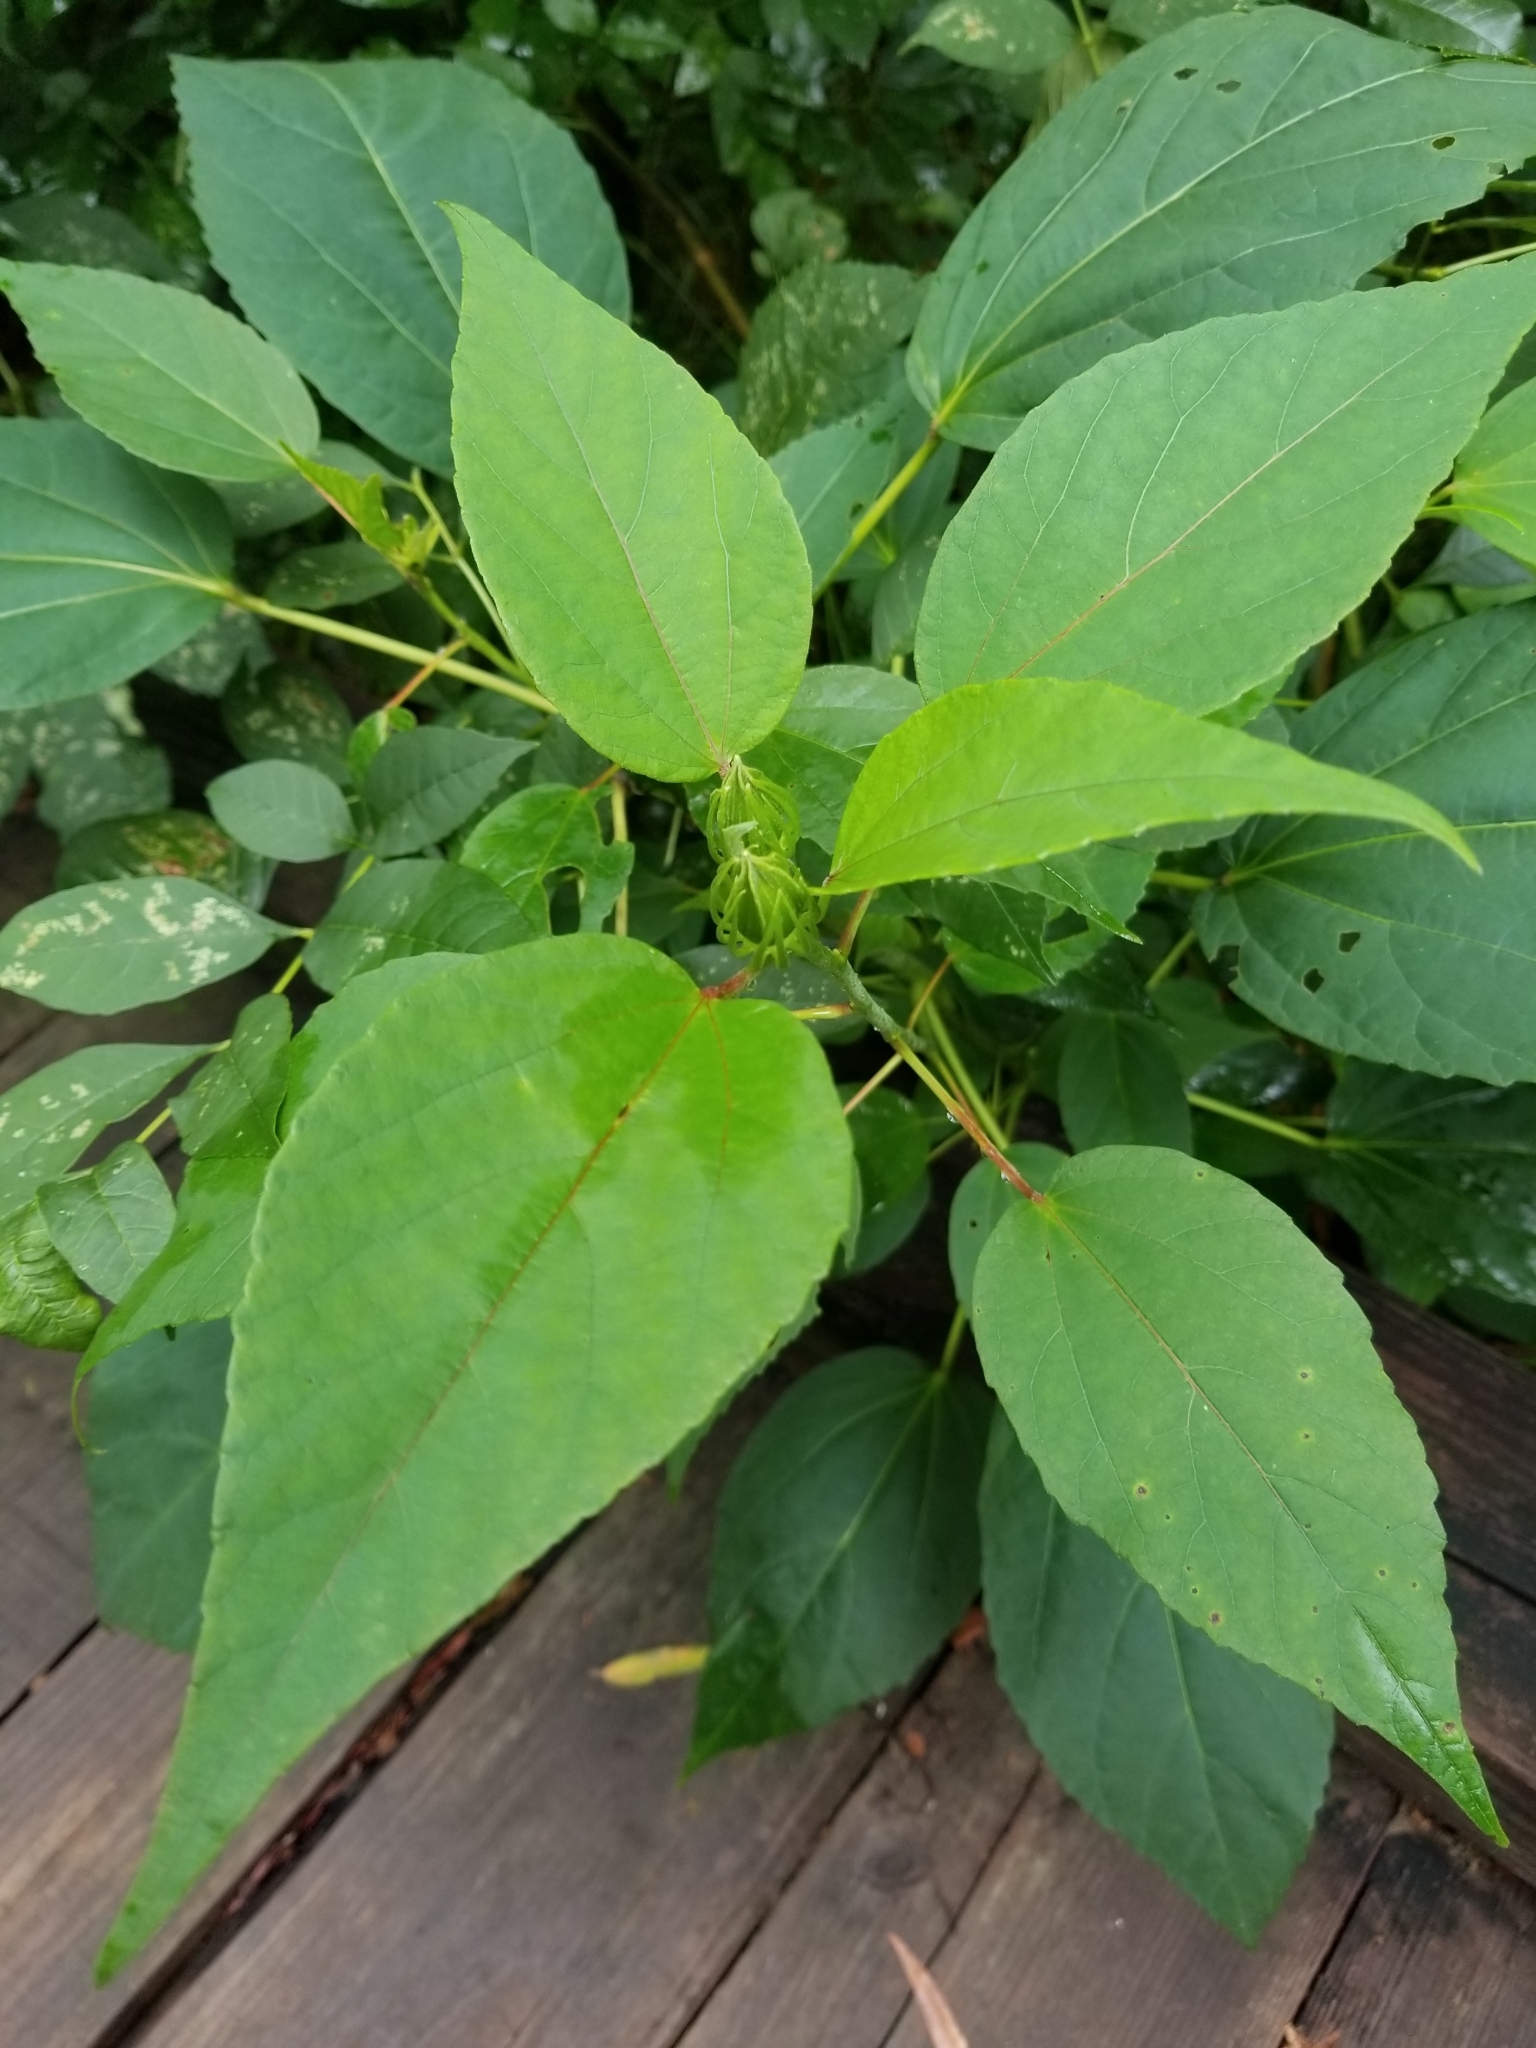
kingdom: Plantae
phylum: Tracheophyta
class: Magnoliopsida
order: Malvales
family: Malvaceae
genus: Hibiscus
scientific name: Hibiscus moscheutos
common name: Common rose-mallow
